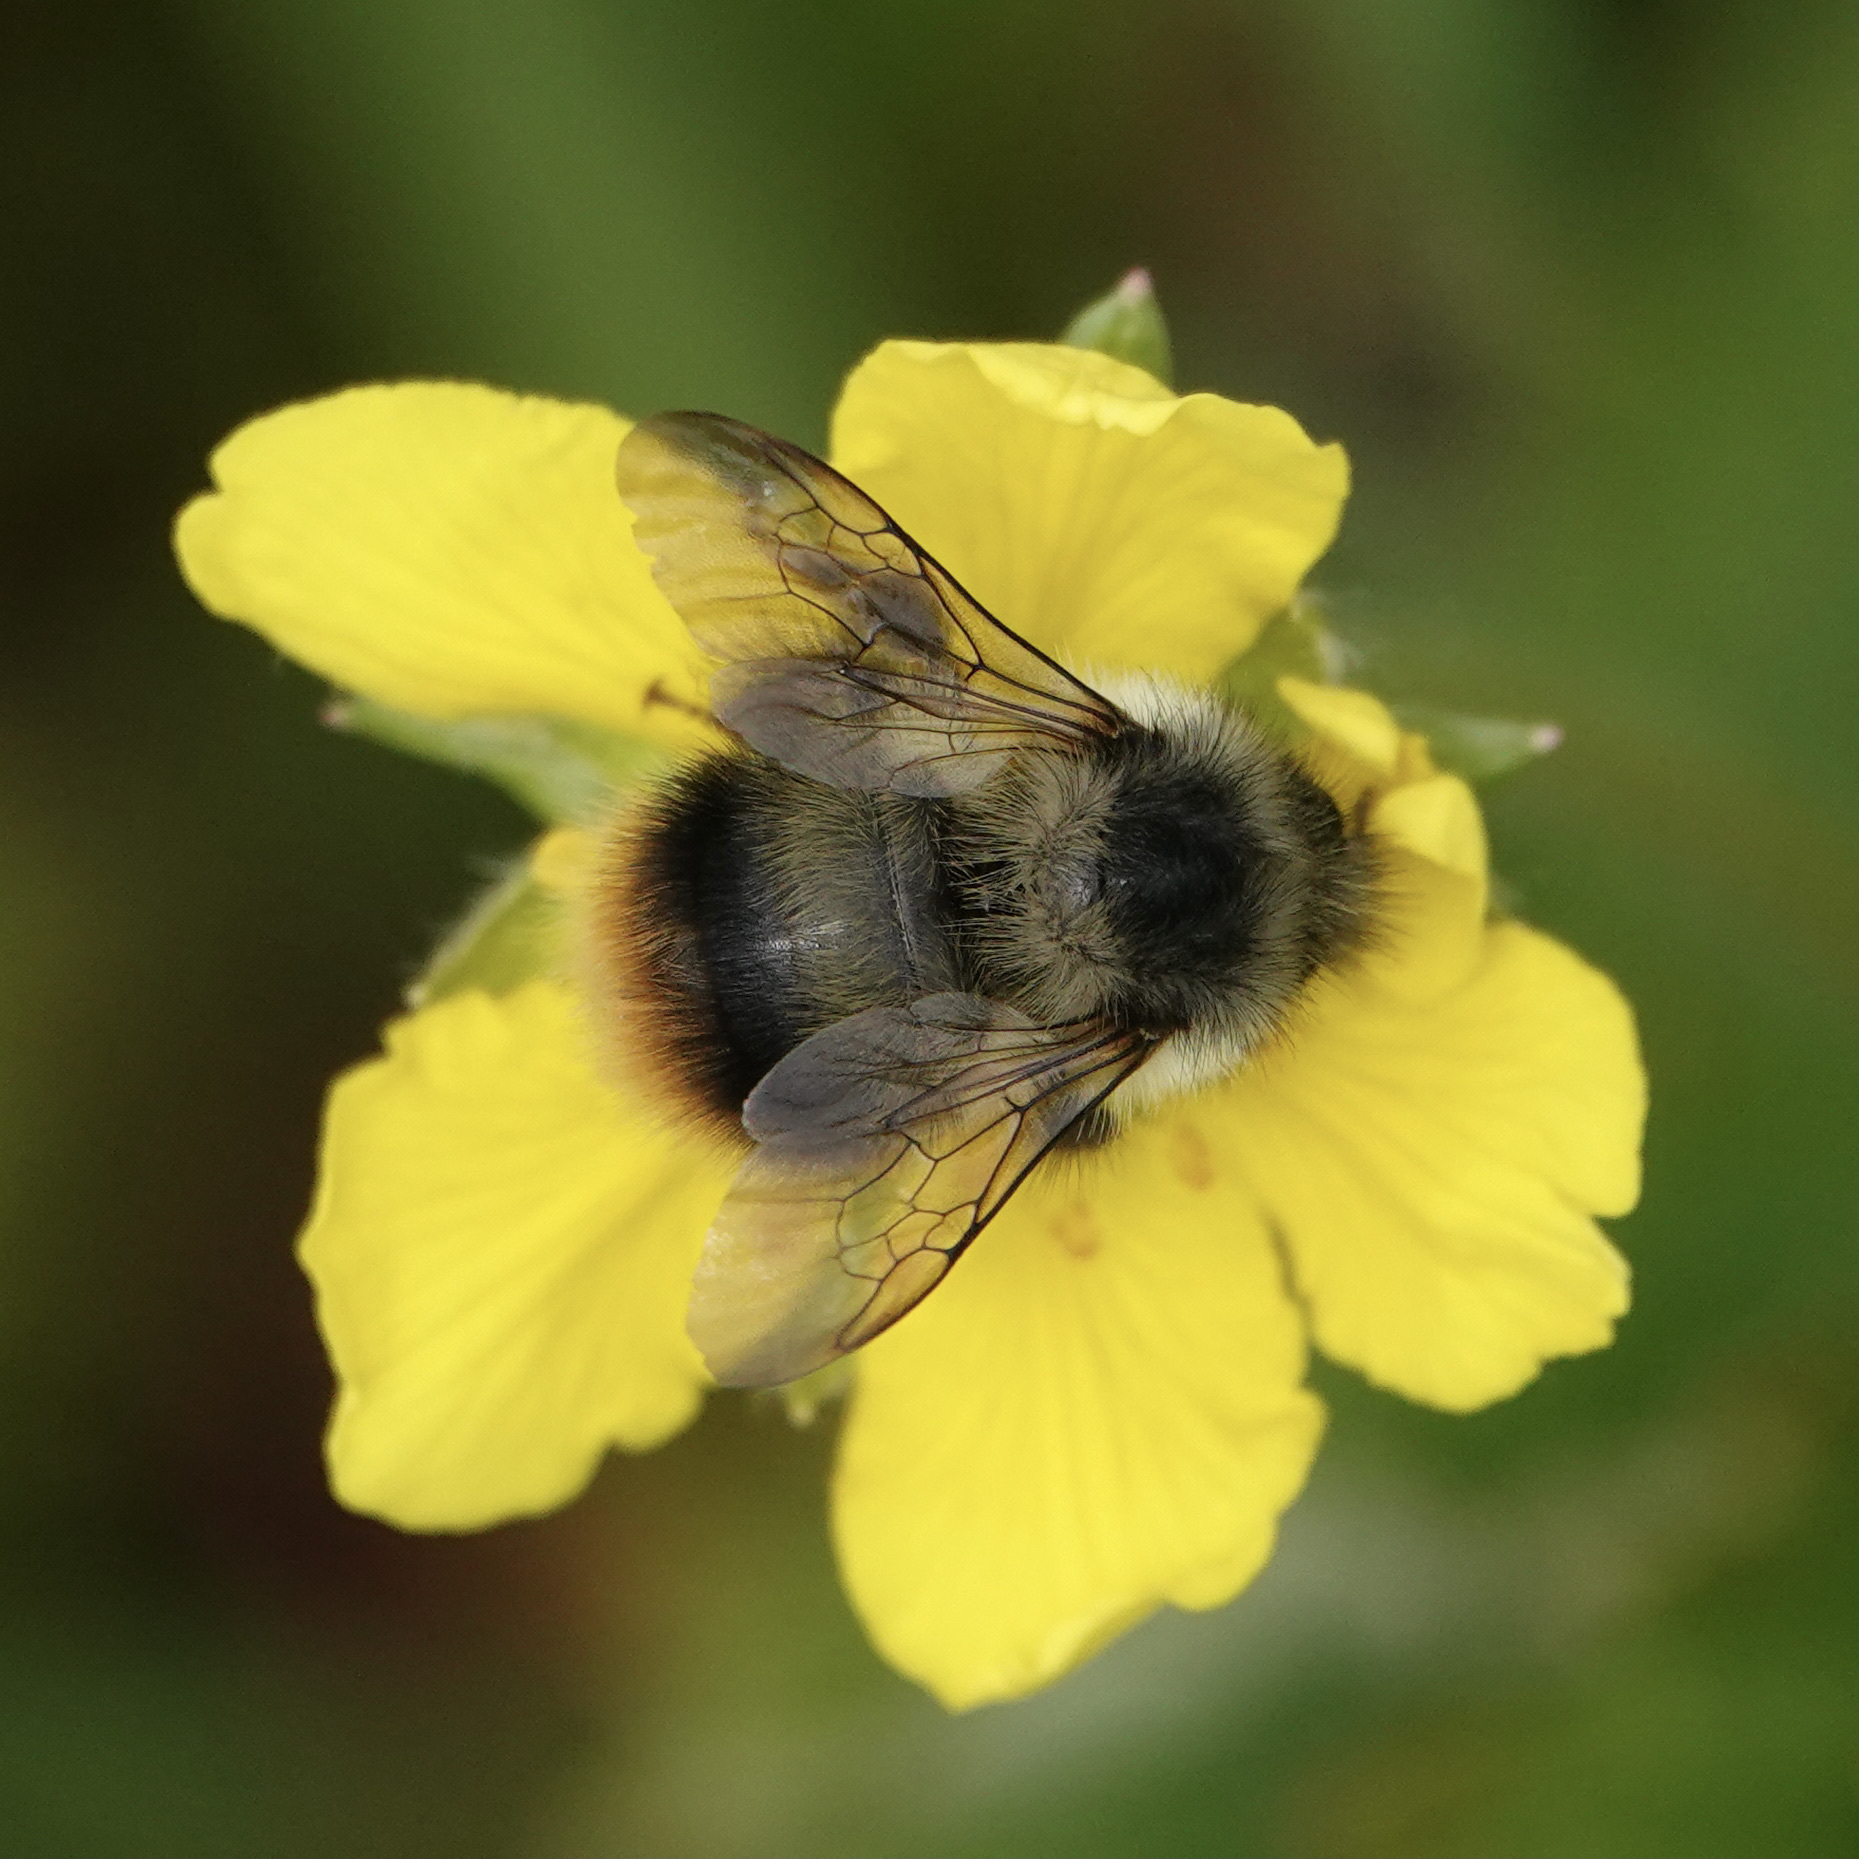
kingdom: Animalia
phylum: Arthropoda
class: Insecta
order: Hymenoptera
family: Apidae
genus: Bombus
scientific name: Bombus mixtus
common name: Fuzzy-horned bumble bee
